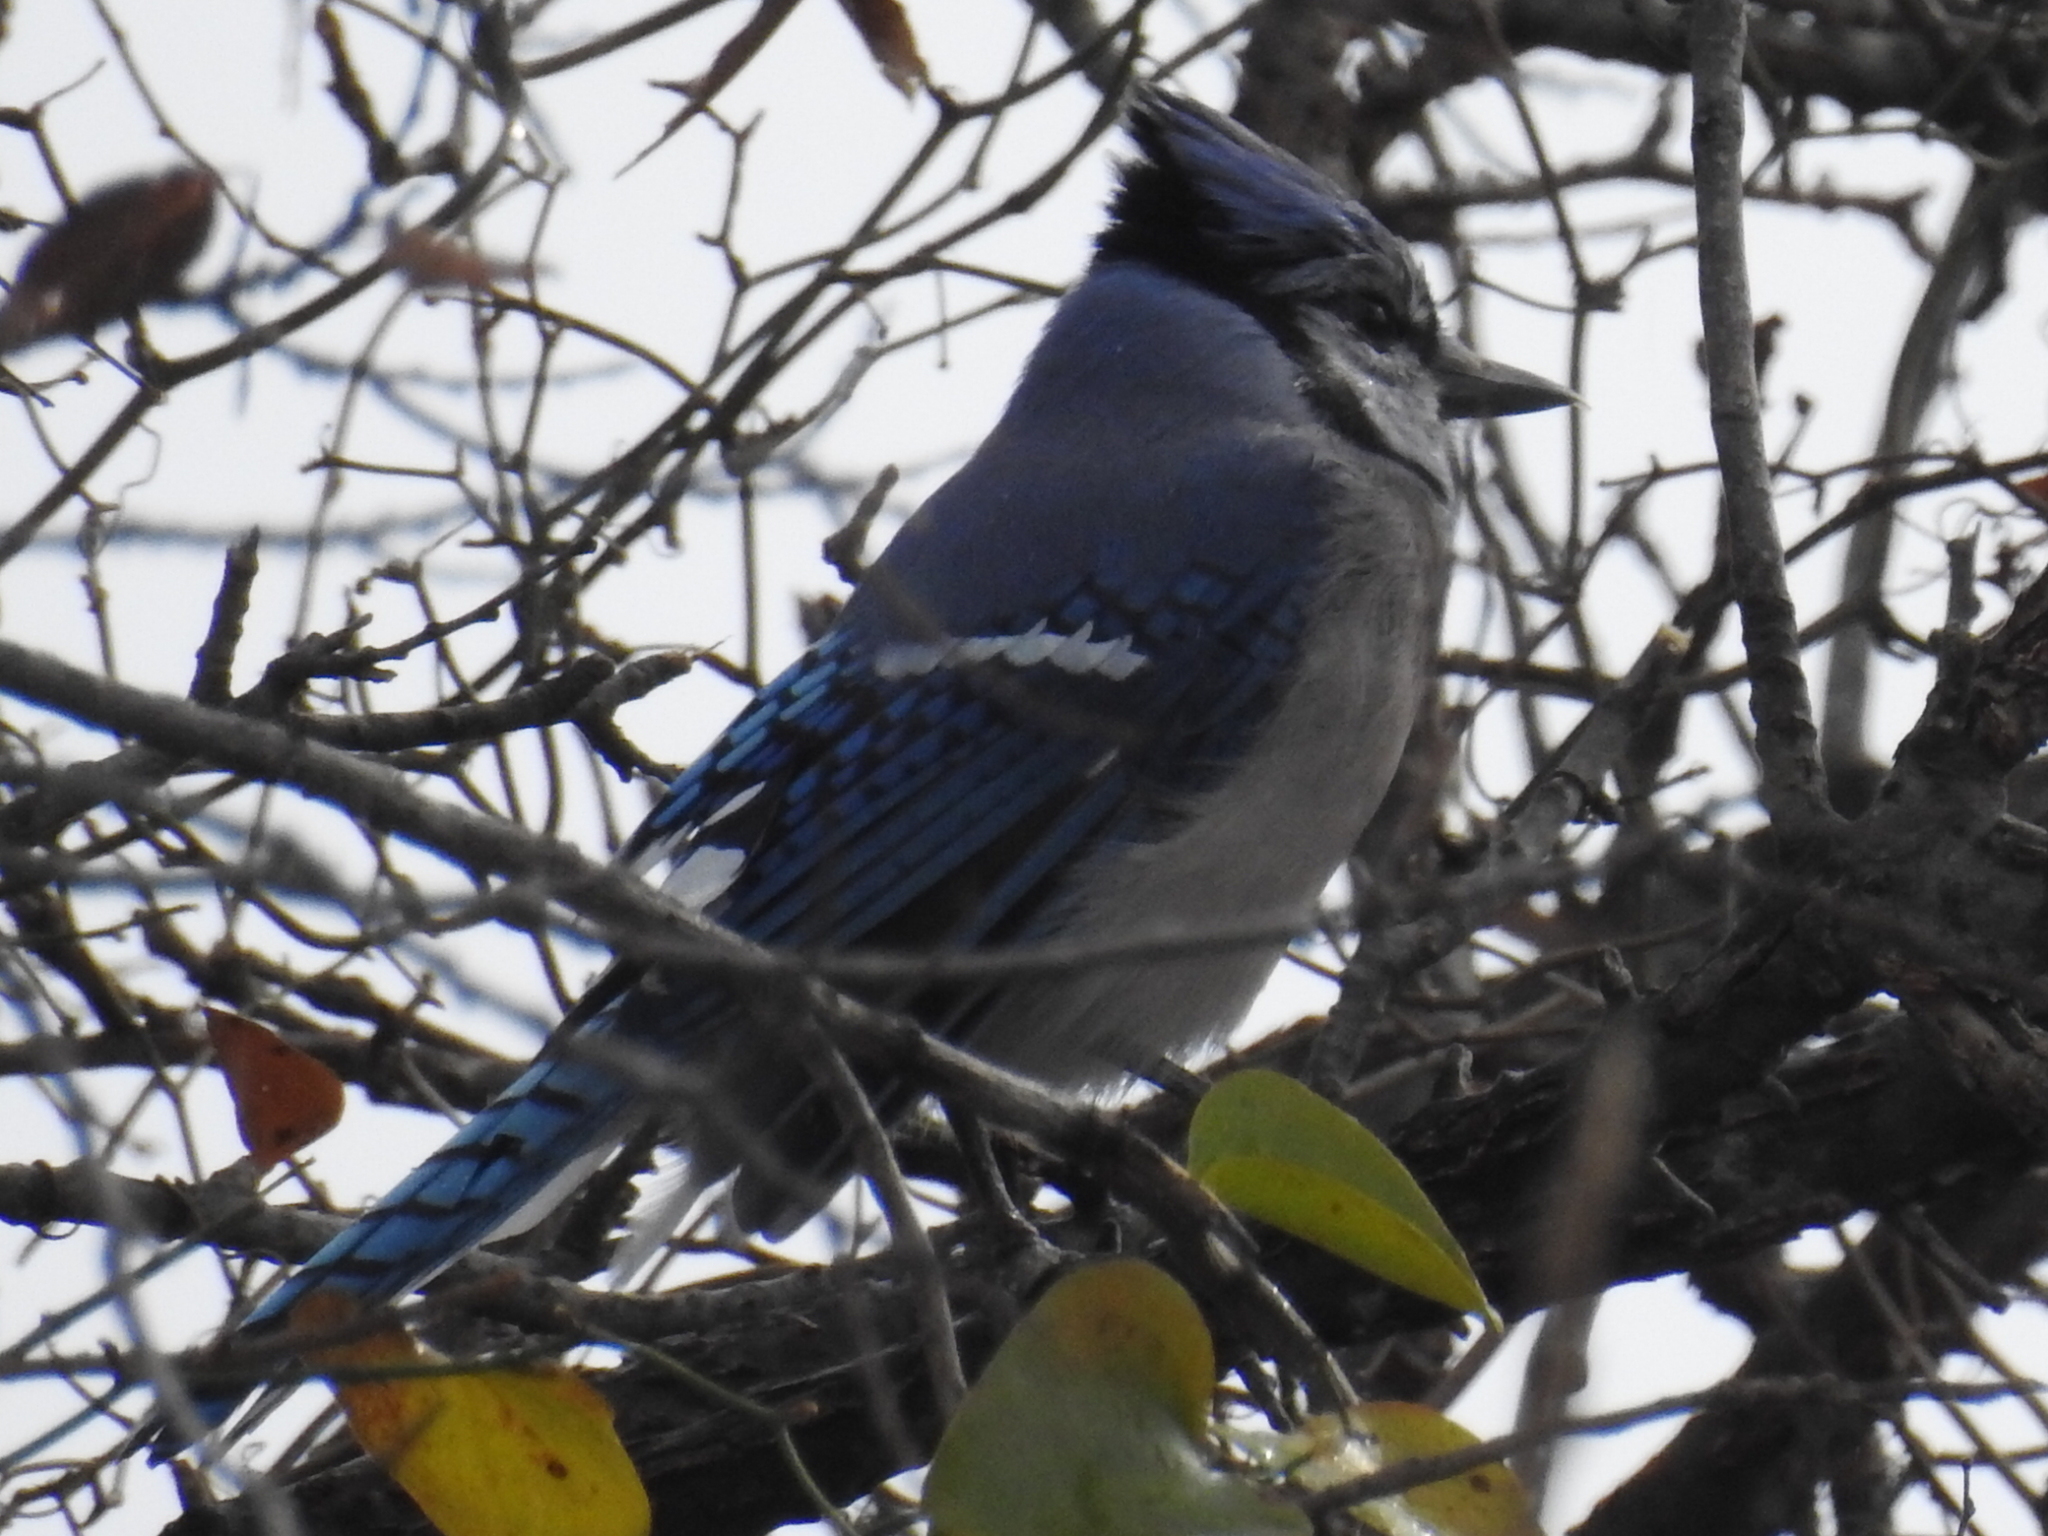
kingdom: Animalia
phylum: Chordata
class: Aves
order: Passeriformes
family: Corvidae
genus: Cyanocitta
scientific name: Cyanocitta cristata
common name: Blue jay
